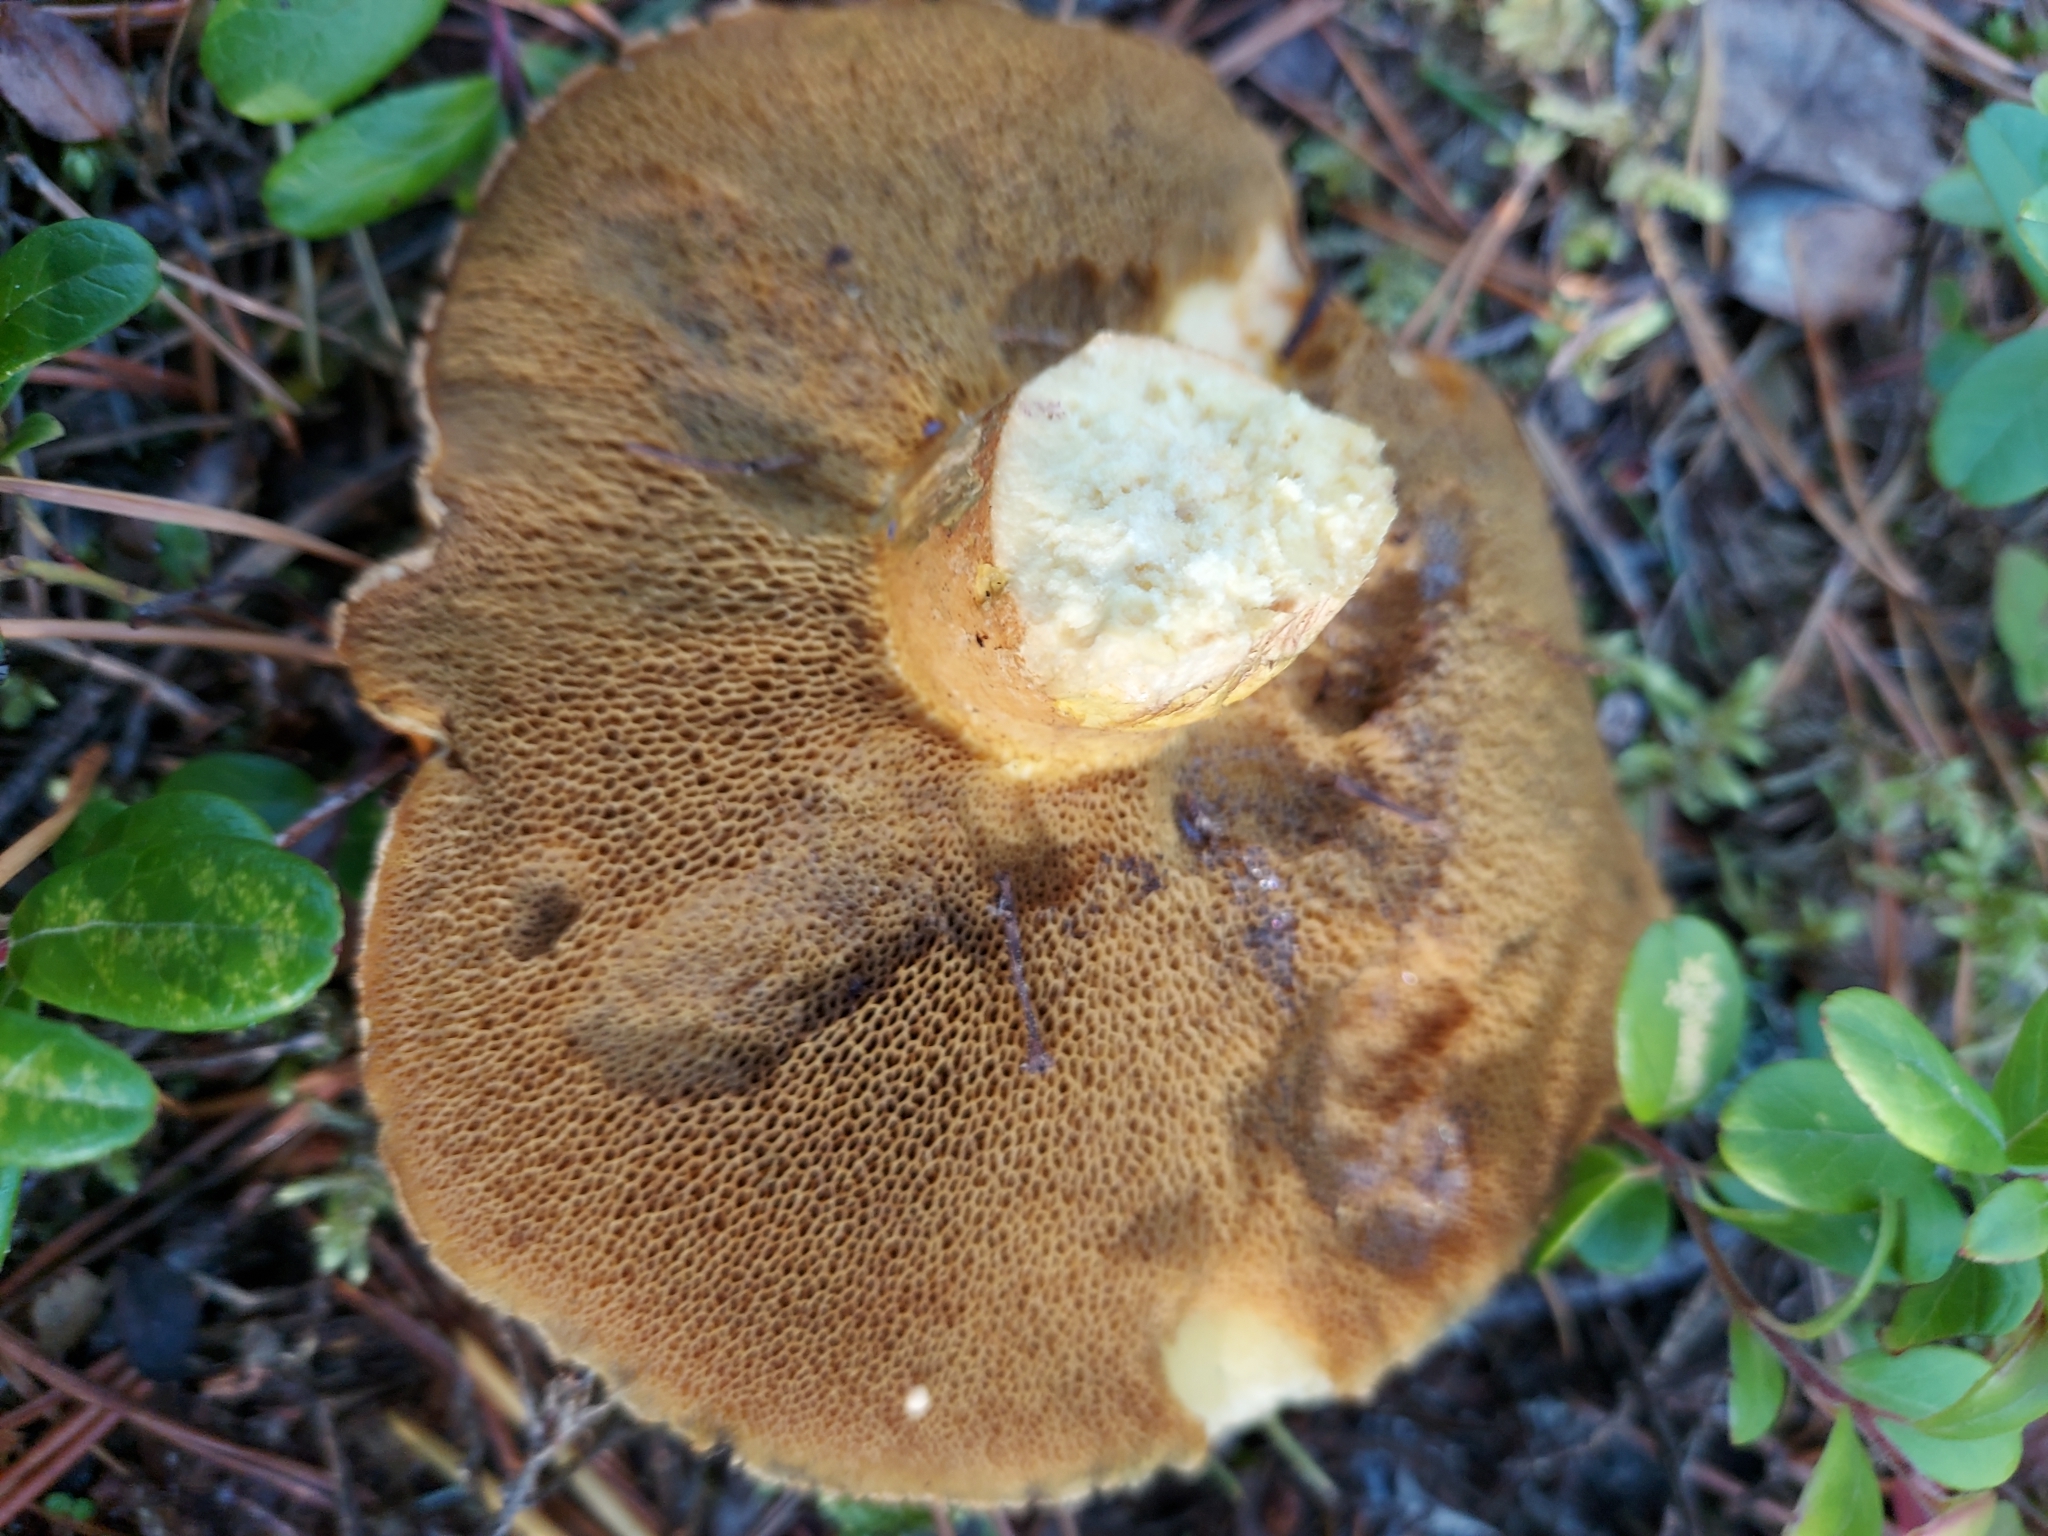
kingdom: Fungi
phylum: Basidiomycota
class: Agaricomycetes
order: Boletales
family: Suillaceae
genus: Suillus
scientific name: Suillus variegatus
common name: Velvet bolete
